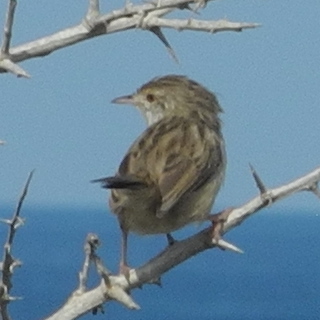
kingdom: Animalia
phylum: Chordata
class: Aves
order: Passeriformes
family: Cisticolidae
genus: Prinia
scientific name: Prinia gracilis
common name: Graceful prinia
